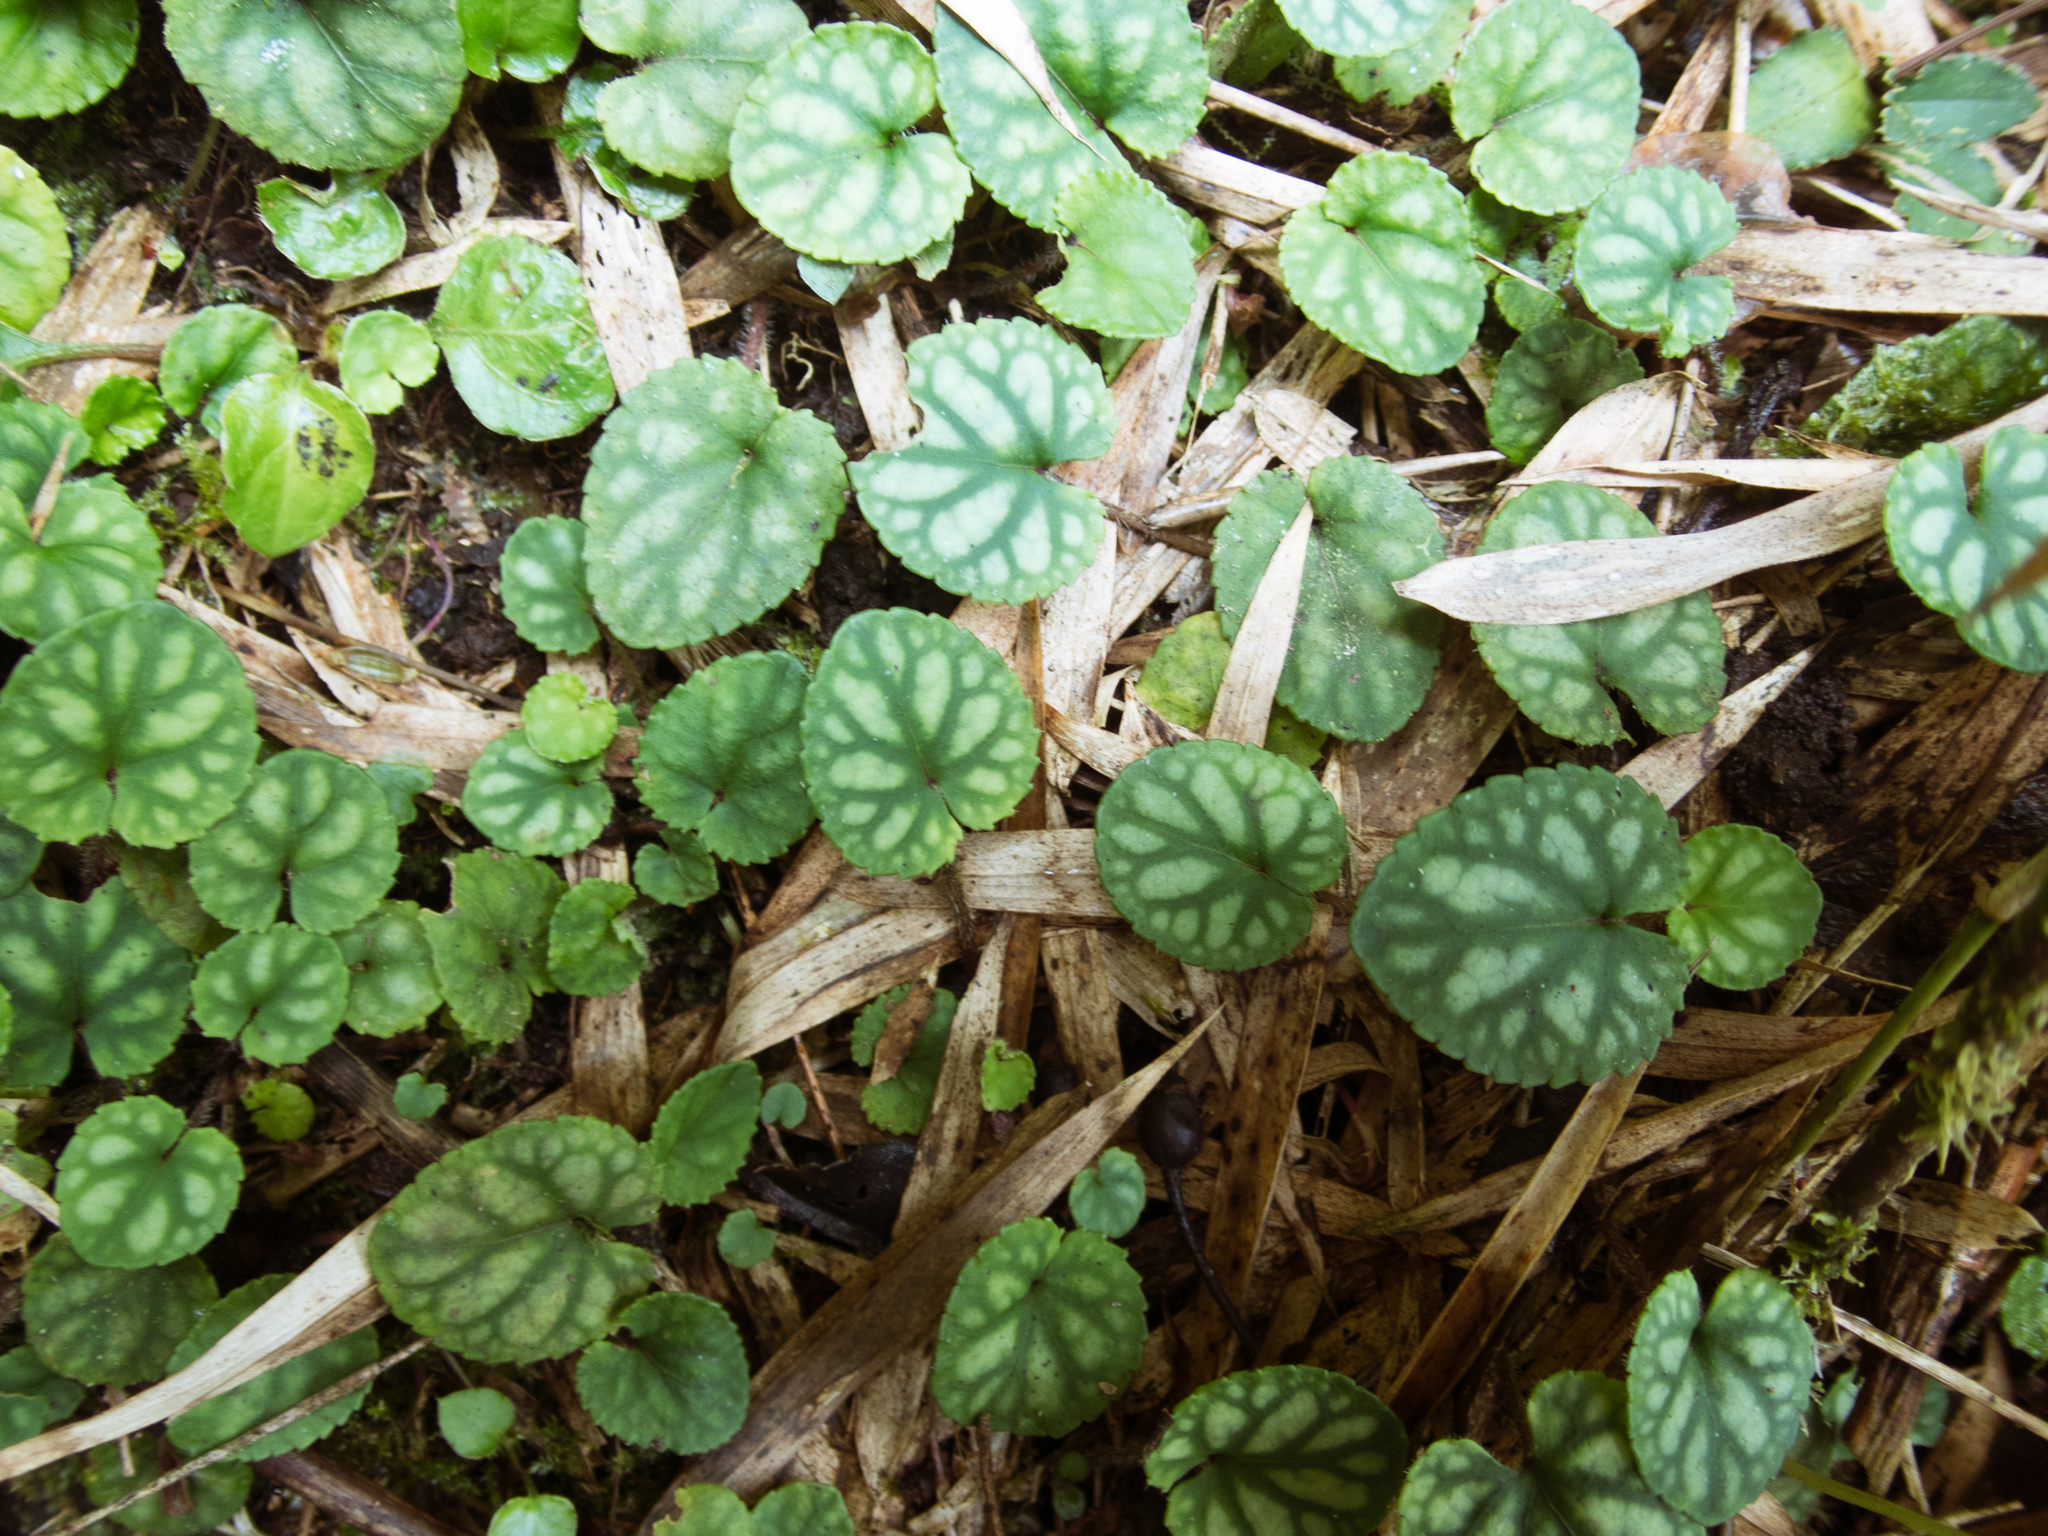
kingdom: Plantae
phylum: Tracheophyta
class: Magnoliopsida
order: Malpighiales
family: Violaceae
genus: Viola
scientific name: Viola formosana
